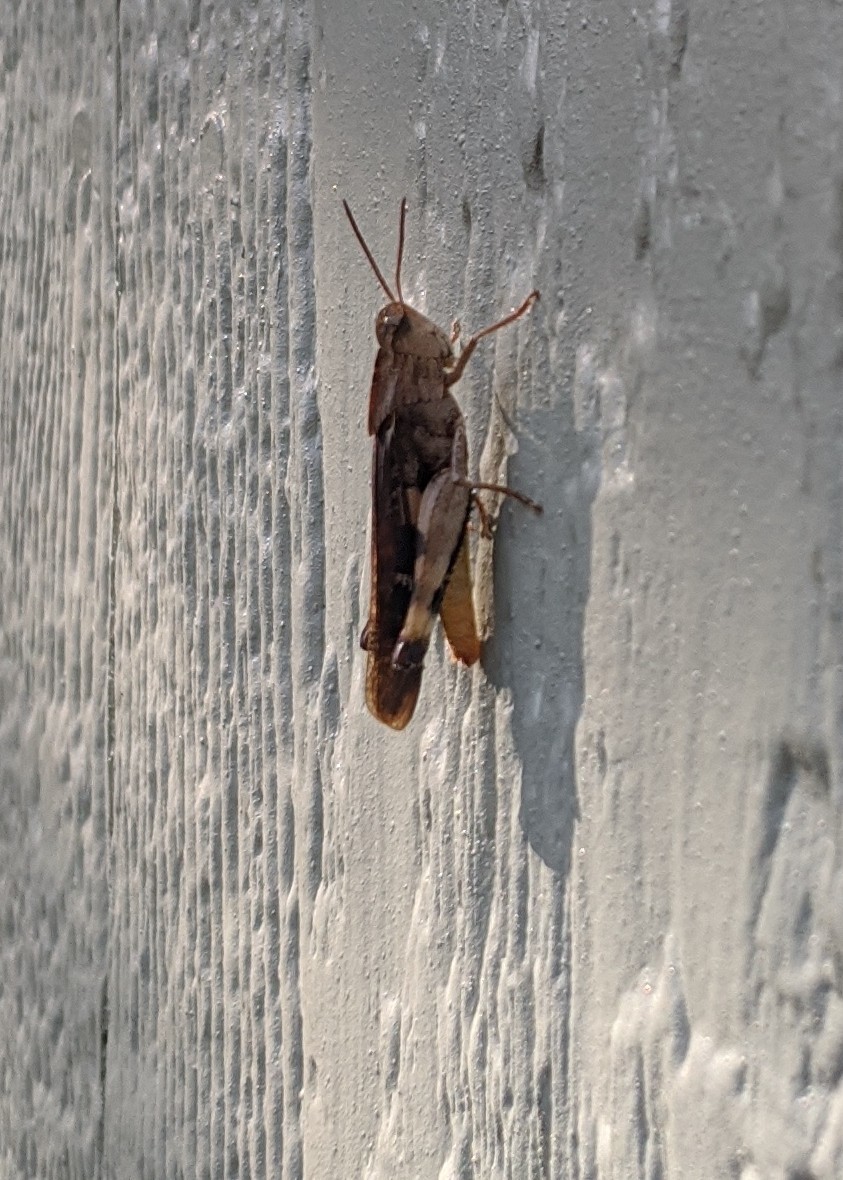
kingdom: Animalia
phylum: Arthropoda
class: Insecta
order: Orthoptera
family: Acrididae
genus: Chortophaga
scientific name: Chortophaga viridifasciata
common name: Green-striped grasshopper
